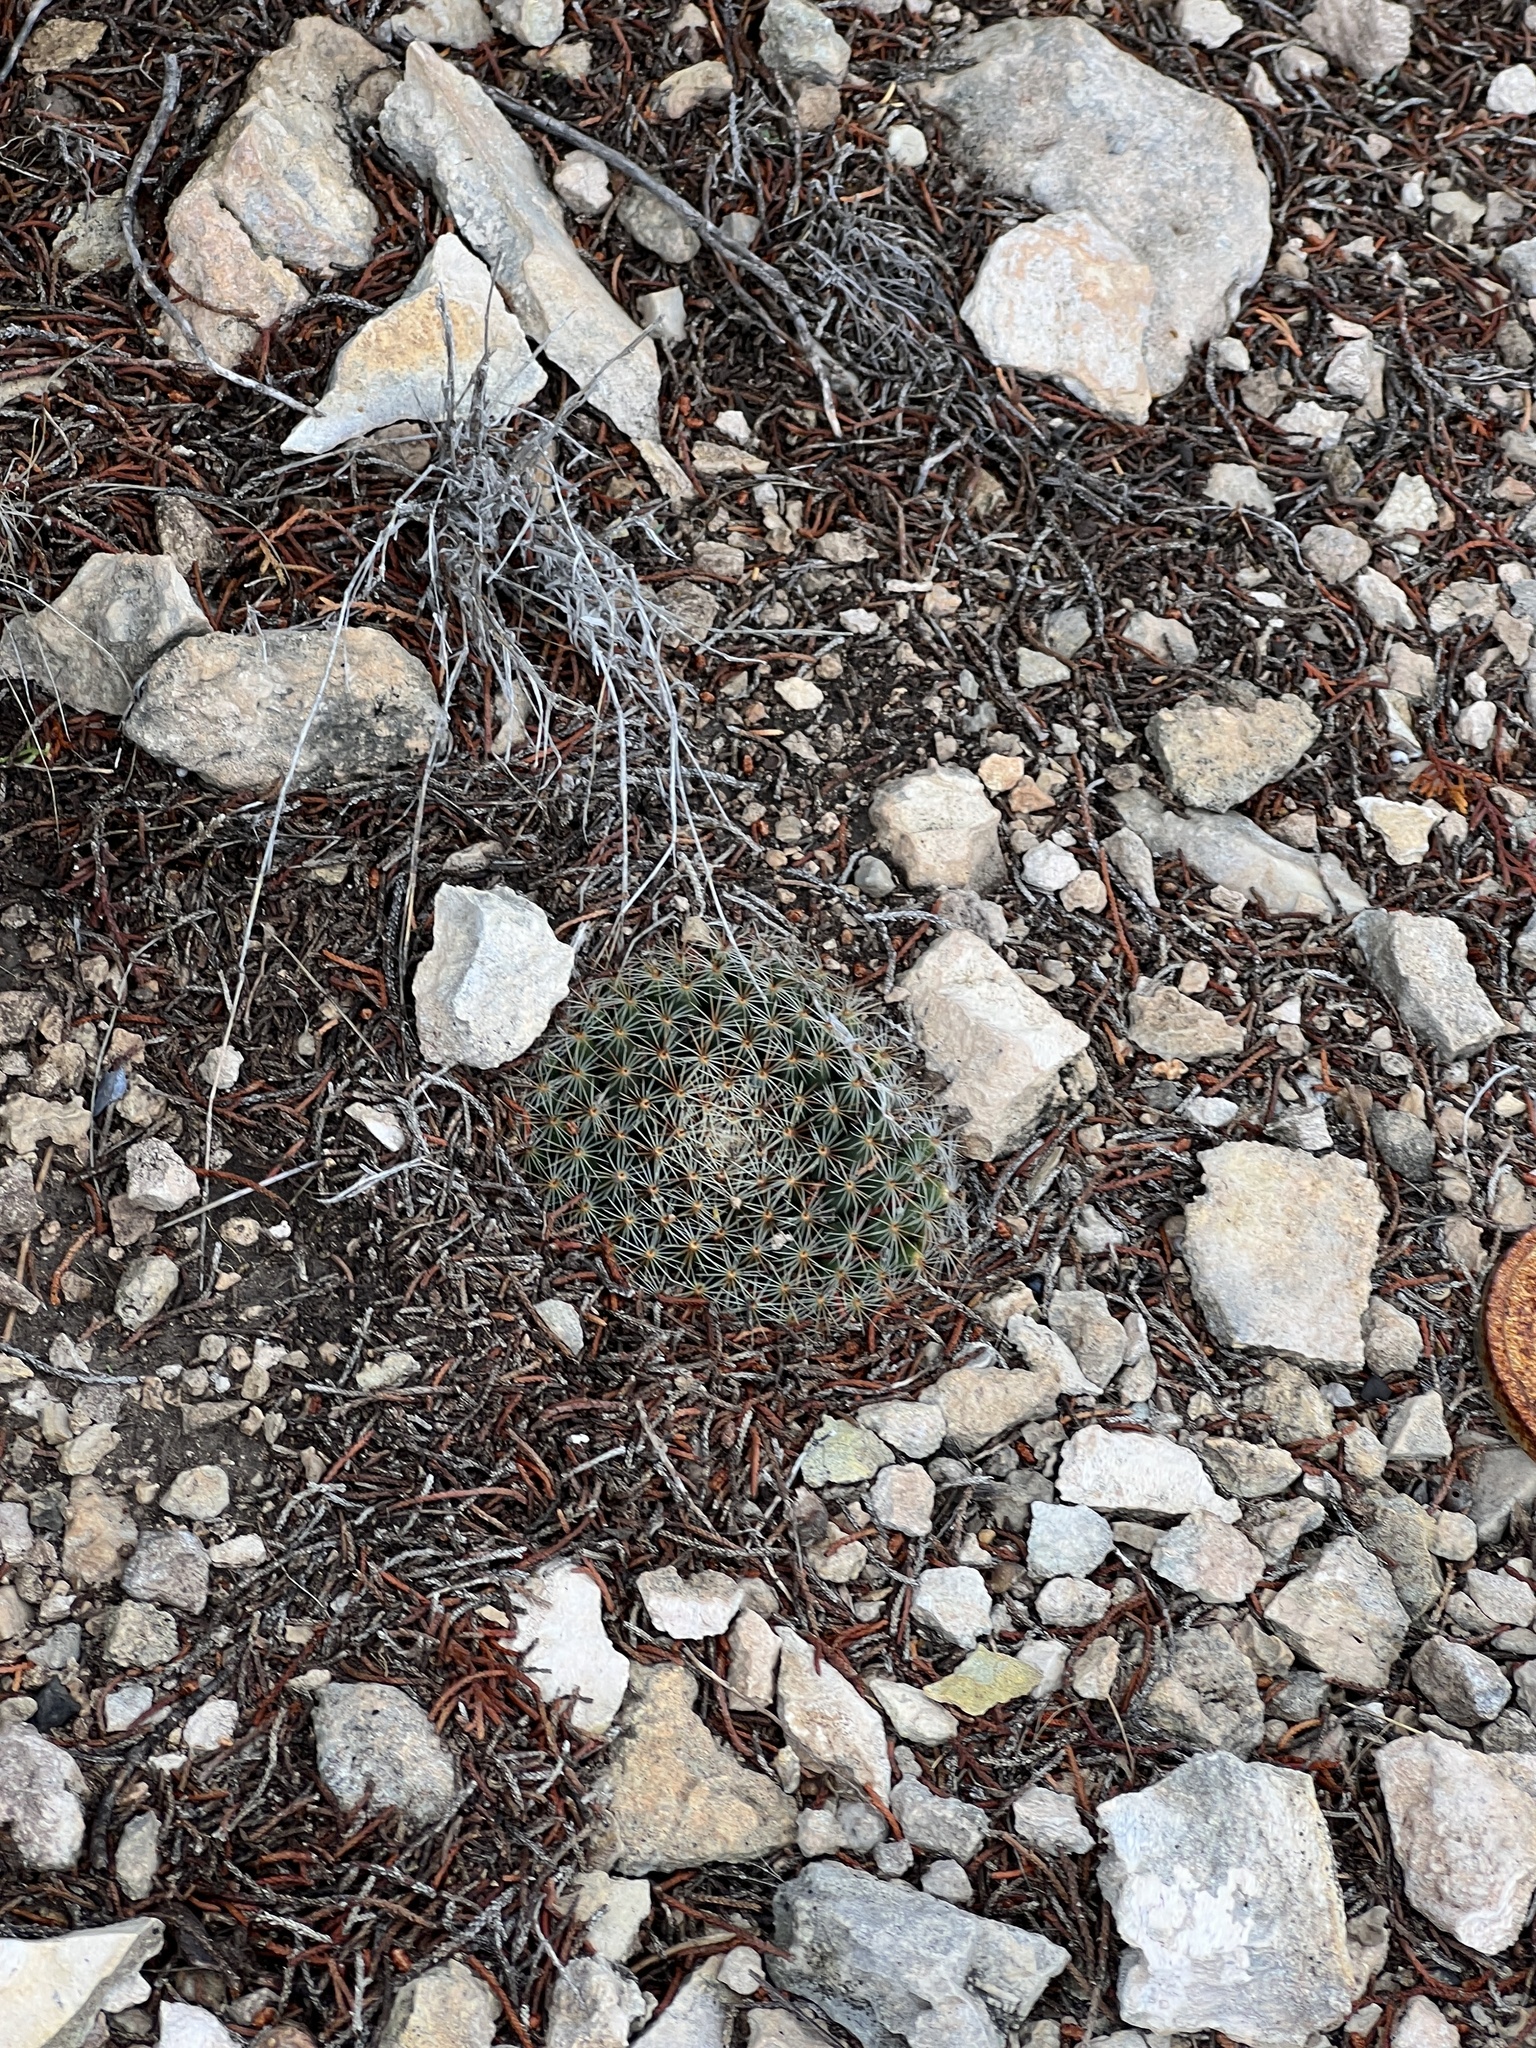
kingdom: Plantae
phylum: Tracheophyta
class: Magnoliopsida
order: Caryophyllales
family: Cactaceae
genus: Mammillaria
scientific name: Mammillaria heyderi
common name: Little nipple cactus
